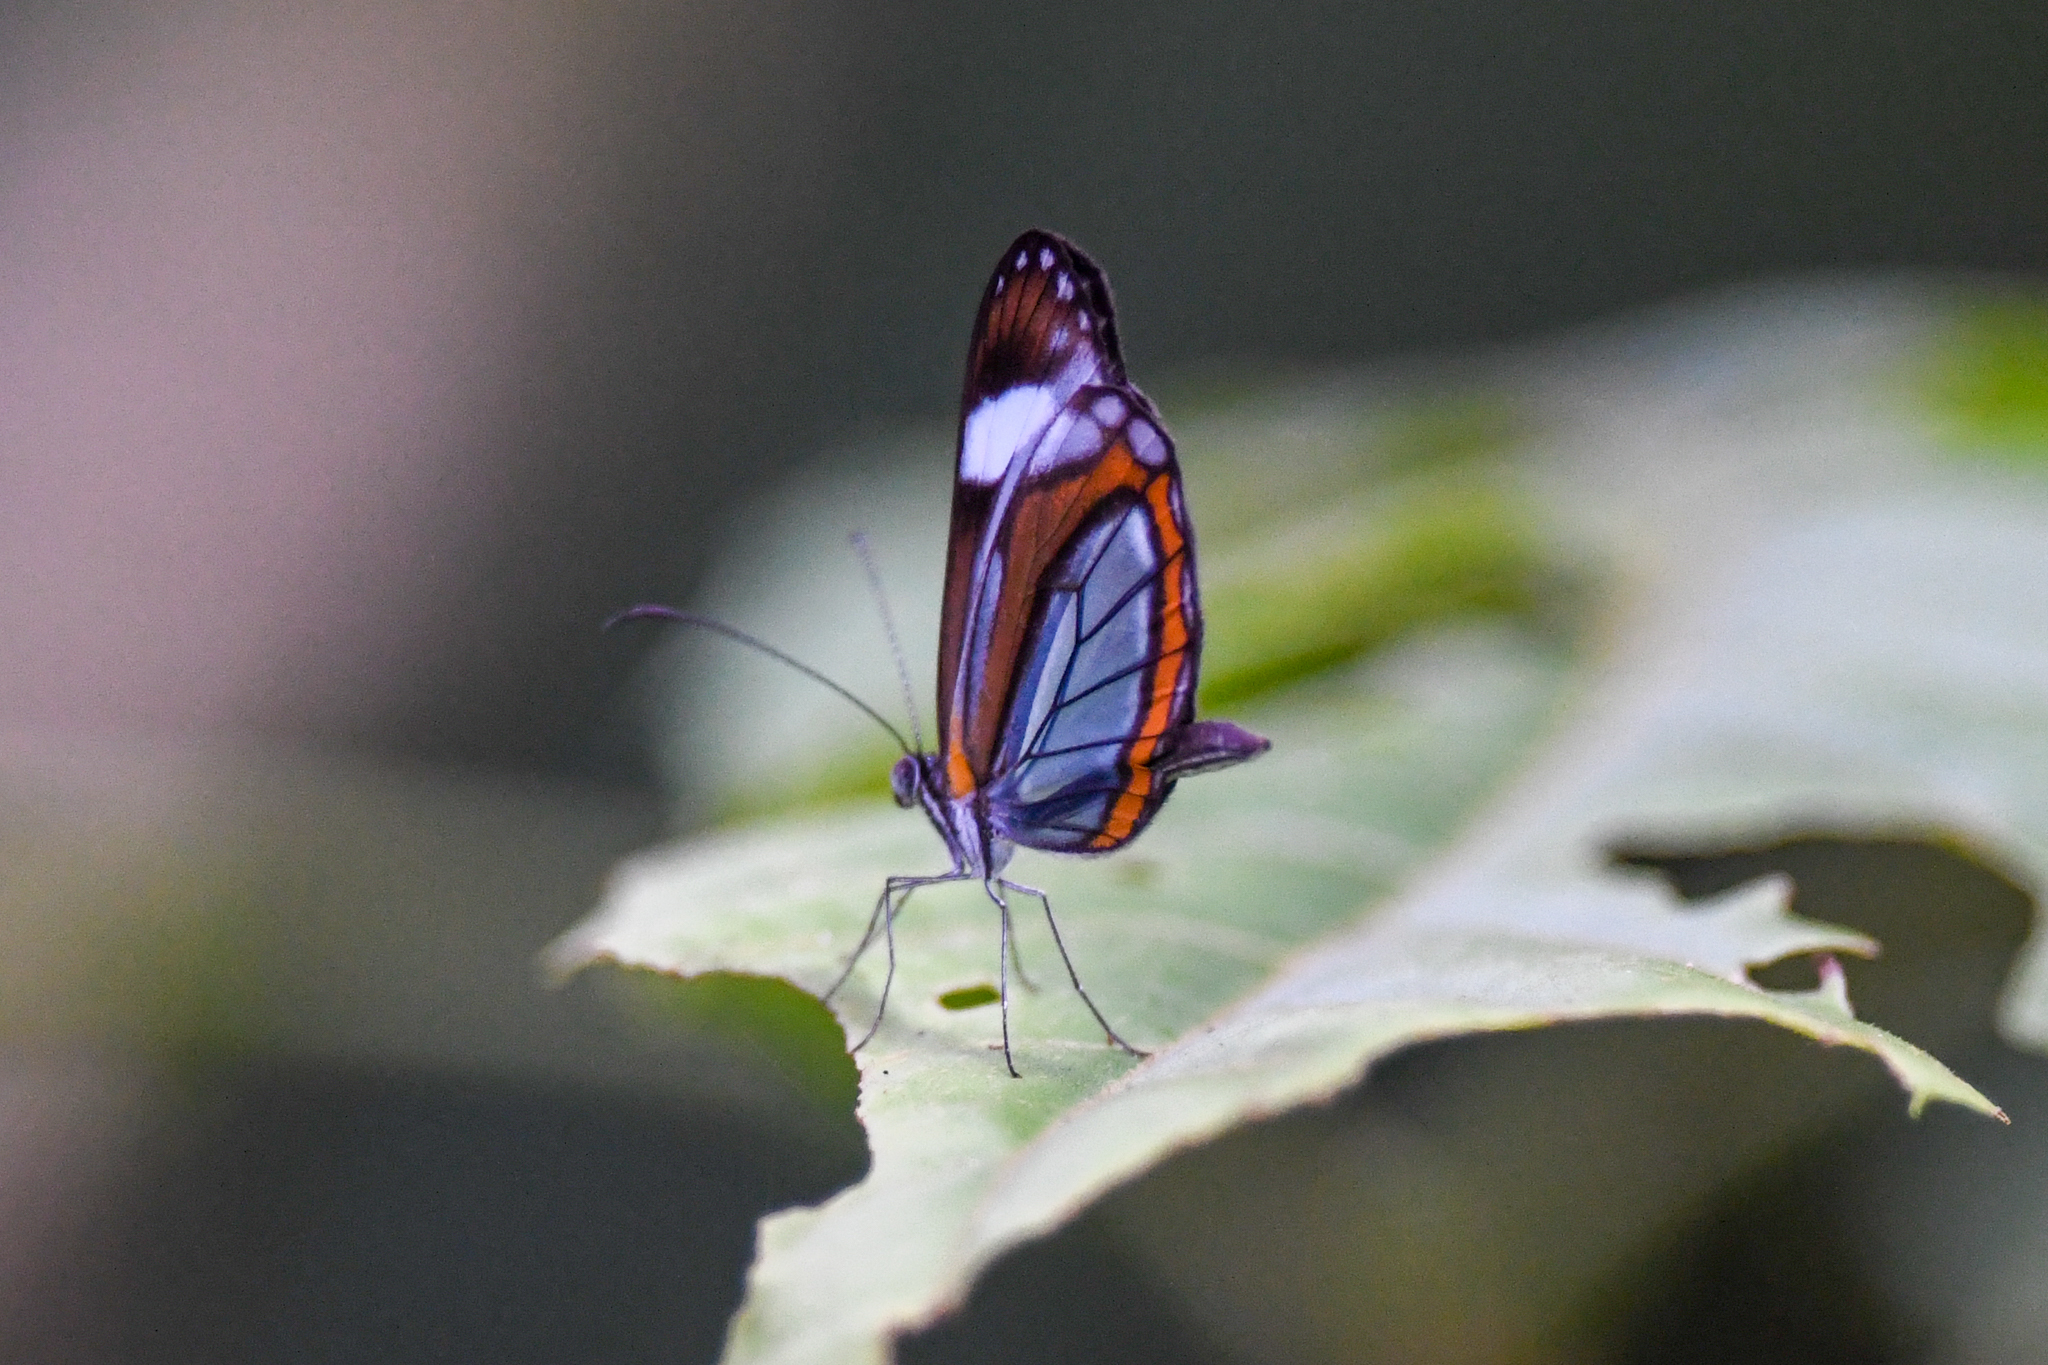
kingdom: Animalia
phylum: Arthropoda
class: Insecta
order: Lepidoptera
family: Pieridae
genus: Dismorphia
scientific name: Dismorphia theucharila
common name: Clearwing mimic-white
